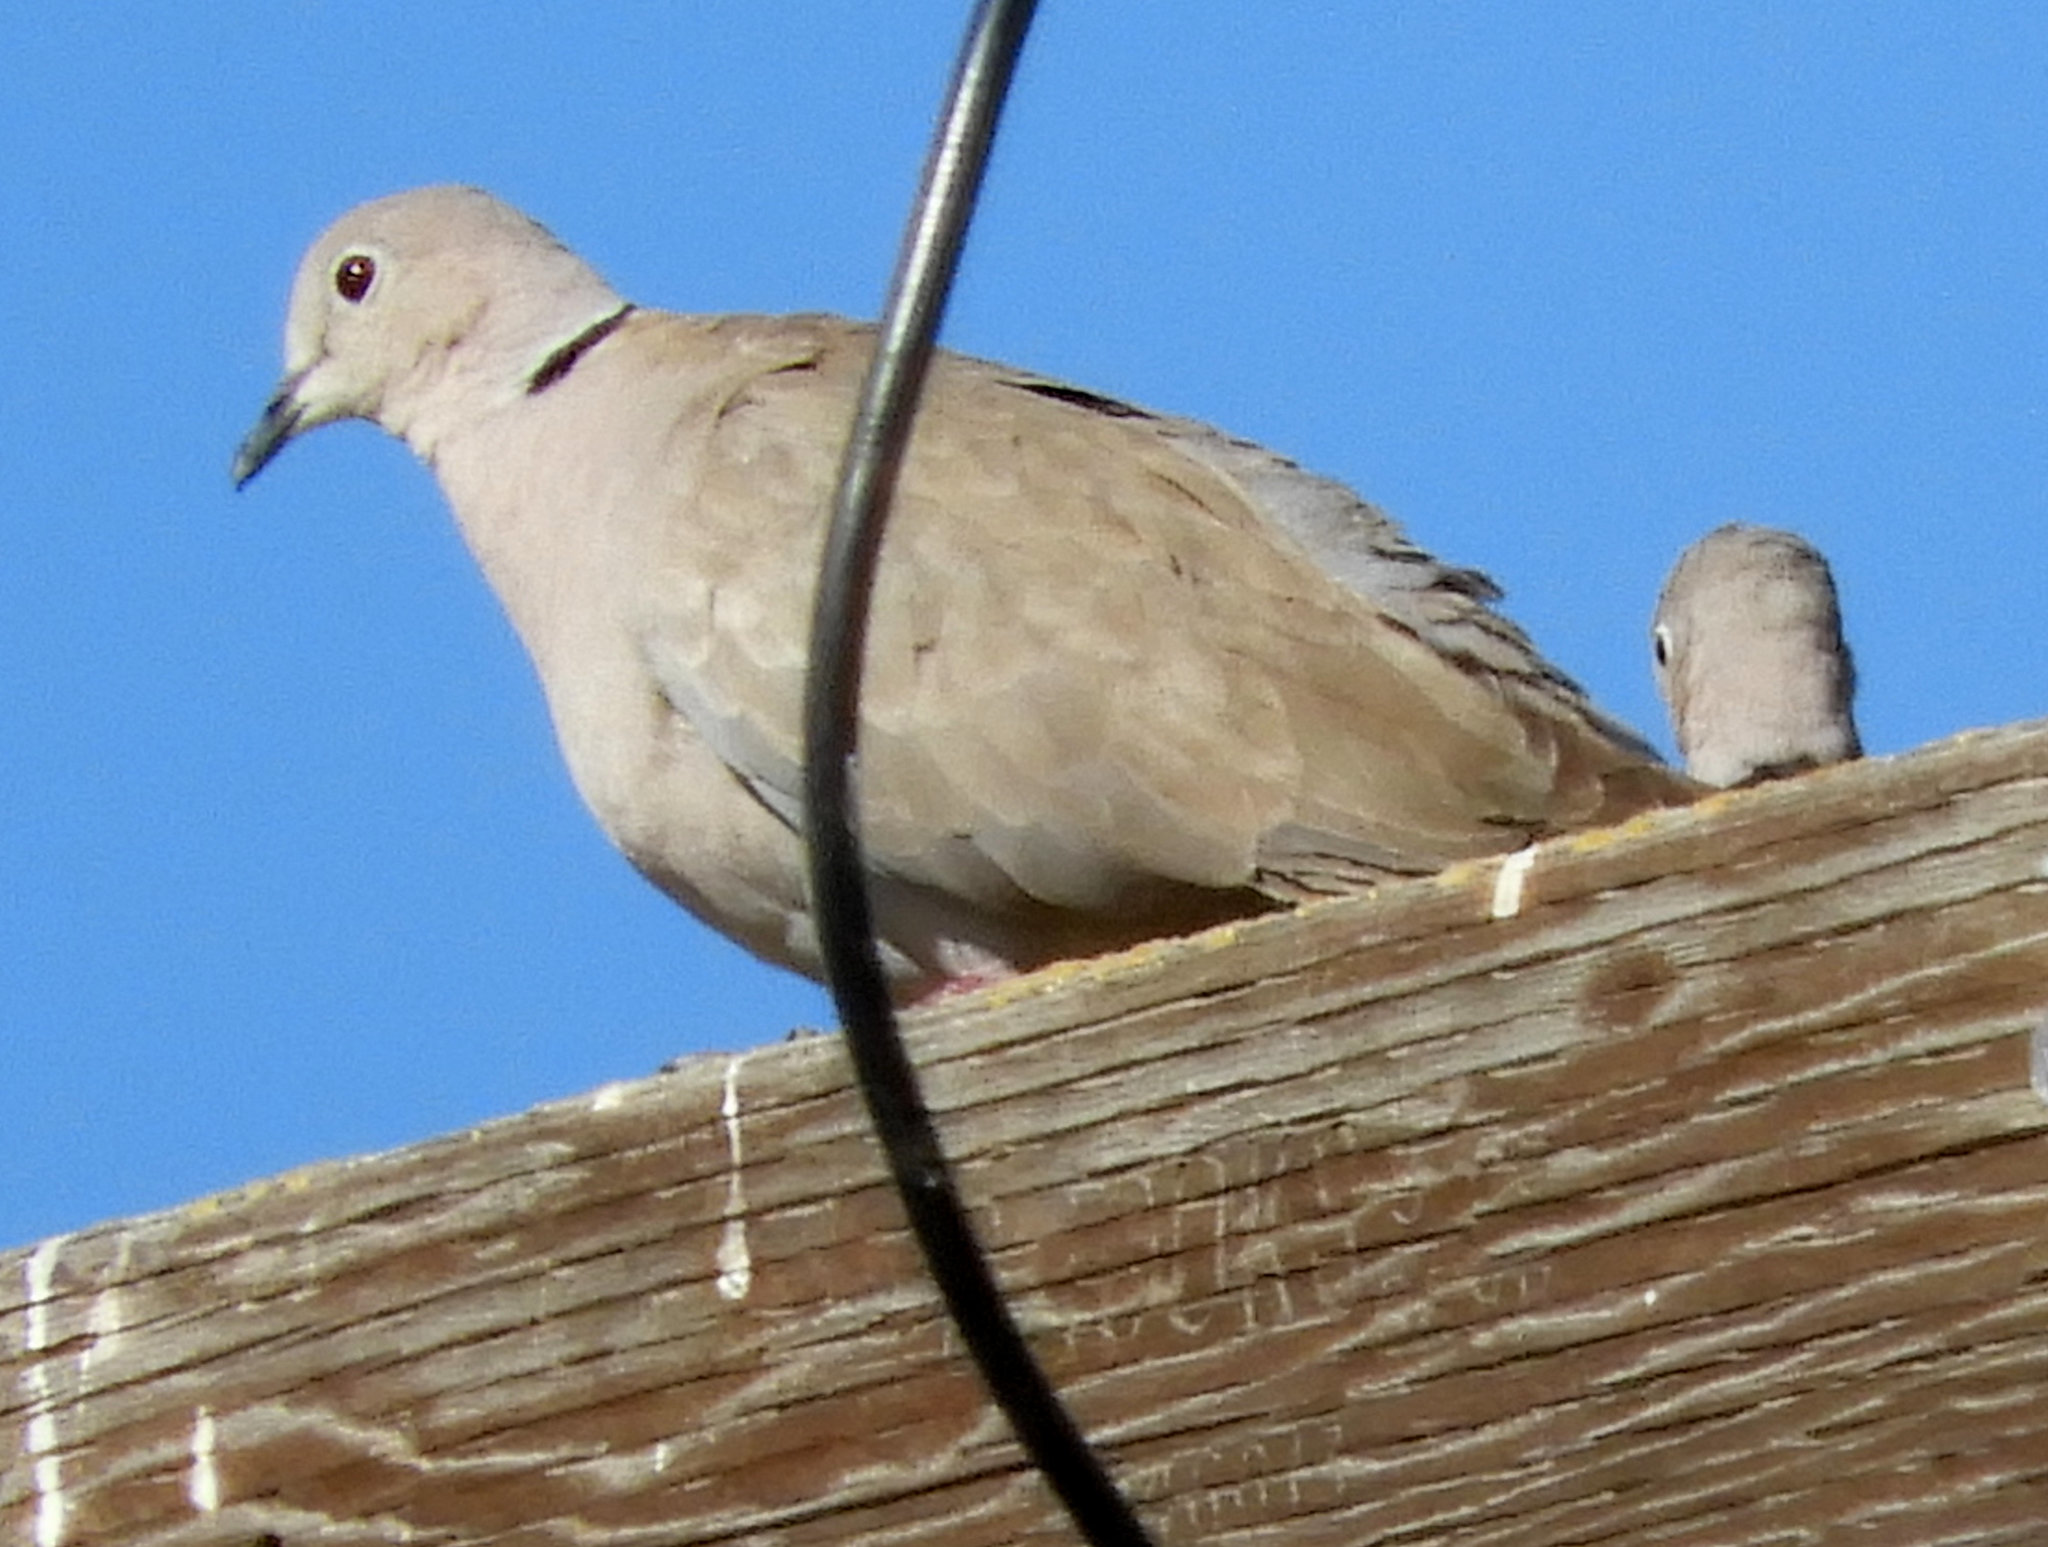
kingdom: Animalia
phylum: Chordata
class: Aves
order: Columbiformes
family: Columbidae
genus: Streptopelia
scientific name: Streptopelia decaocto
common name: Eurasian collared dove
